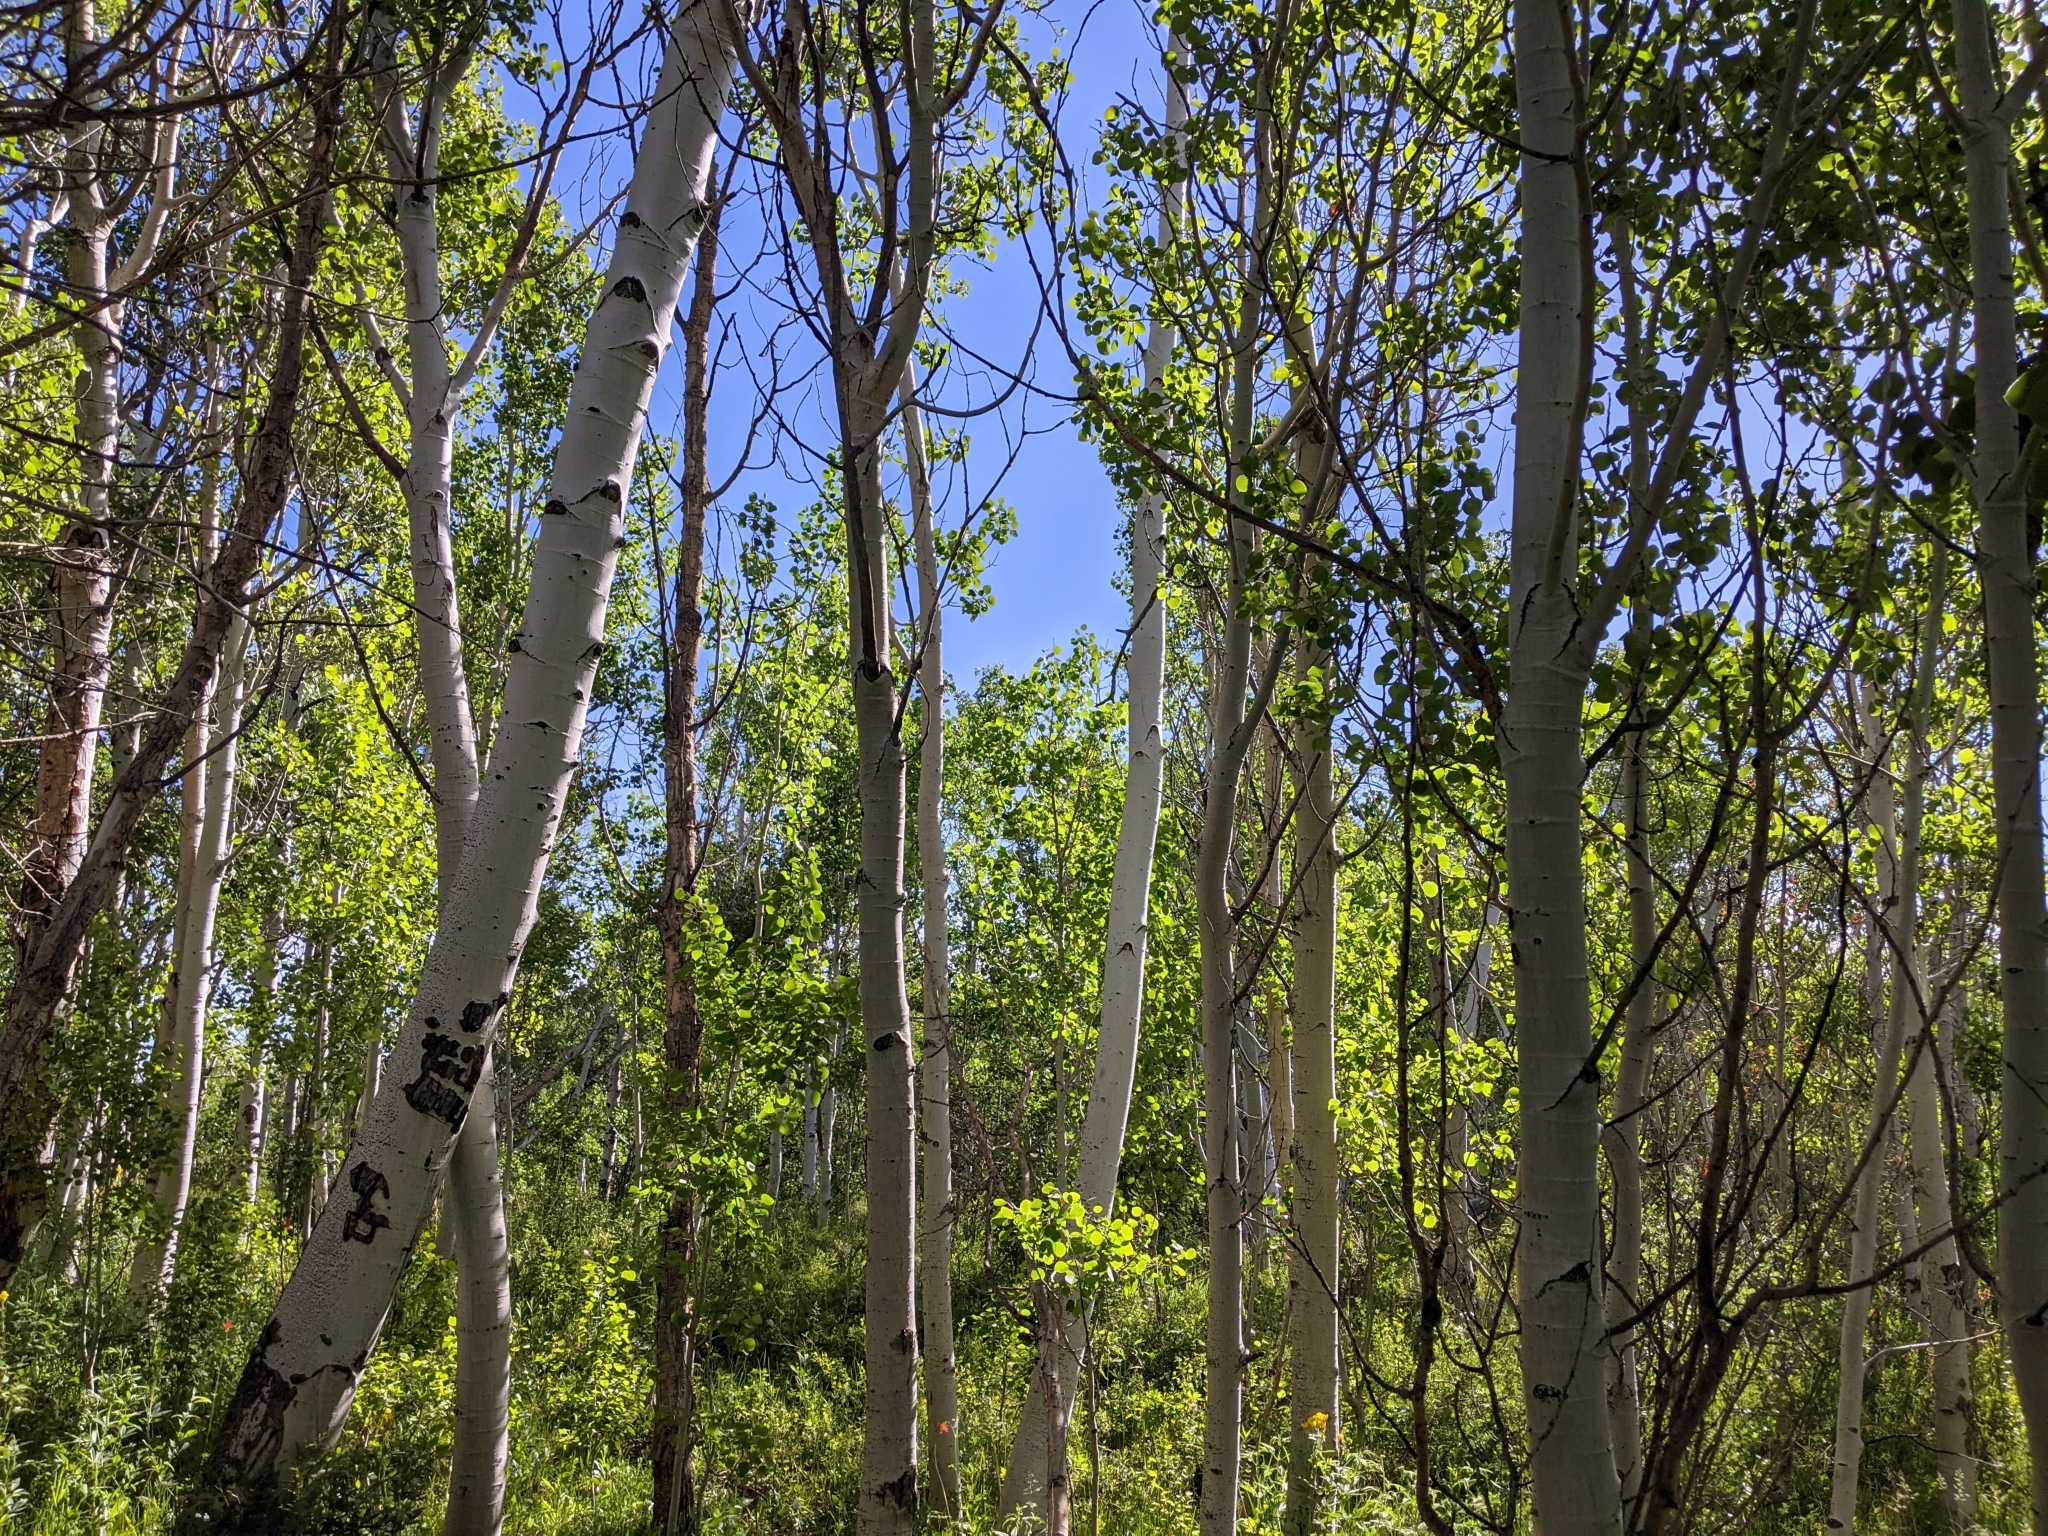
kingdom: Plantae
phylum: Tracheophyta
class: Magnoliopsida
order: Malpighiales
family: Salicaceae
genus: Populus
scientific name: Populus tremuloides
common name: Quaking aspen
